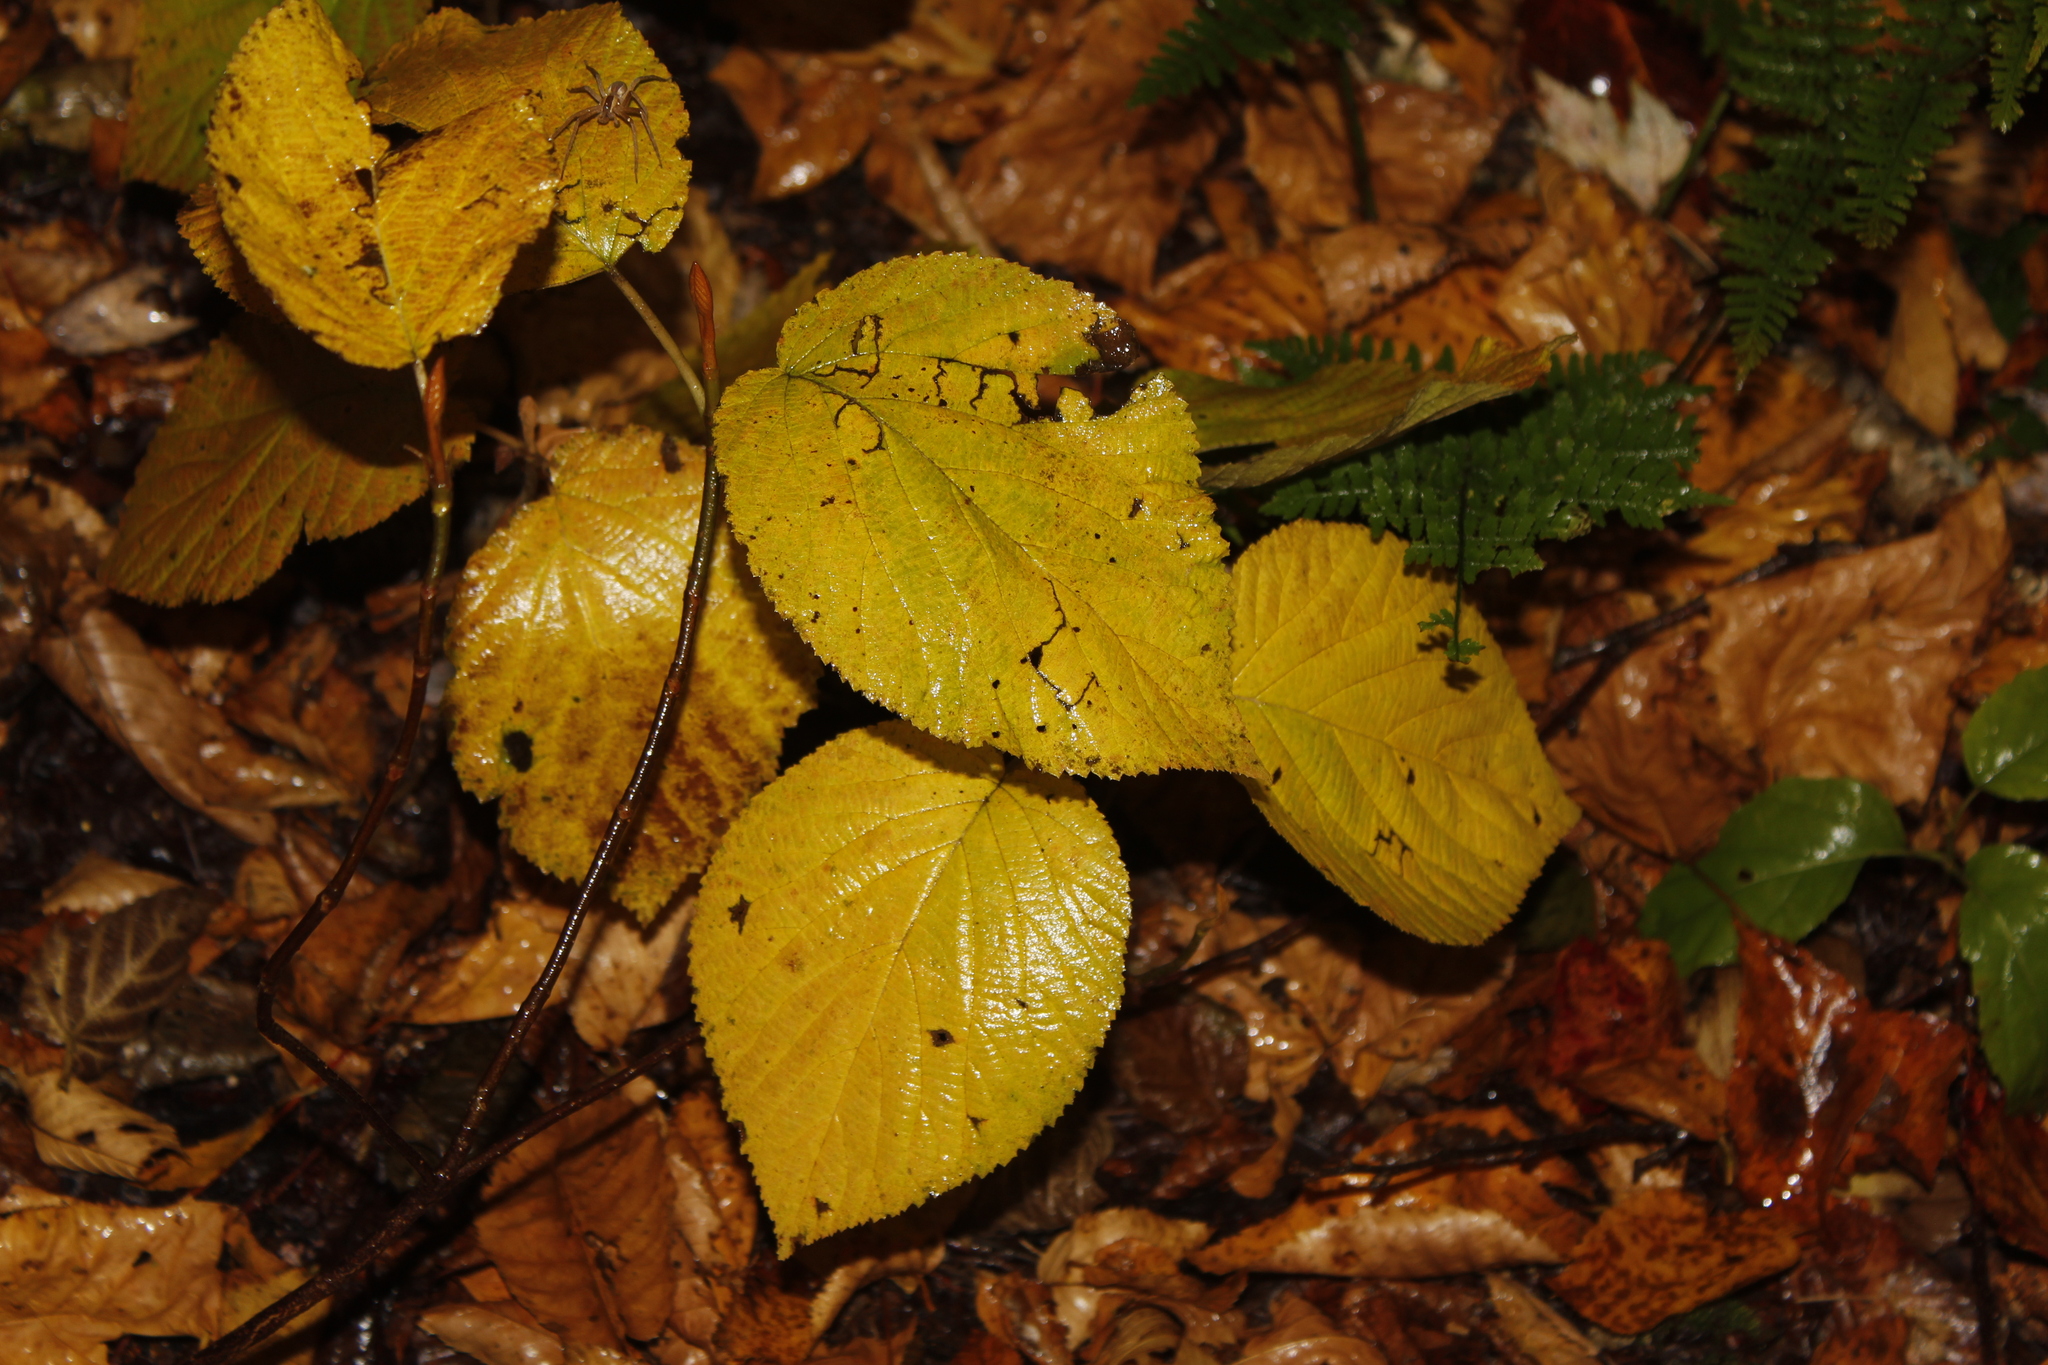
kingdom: Plantae
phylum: Tracheophyta
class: Magnoliopsida
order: Dipsacales
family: Viburnaceae
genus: Viburnum
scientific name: Viburnum lantanoides
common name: Hobblebush
